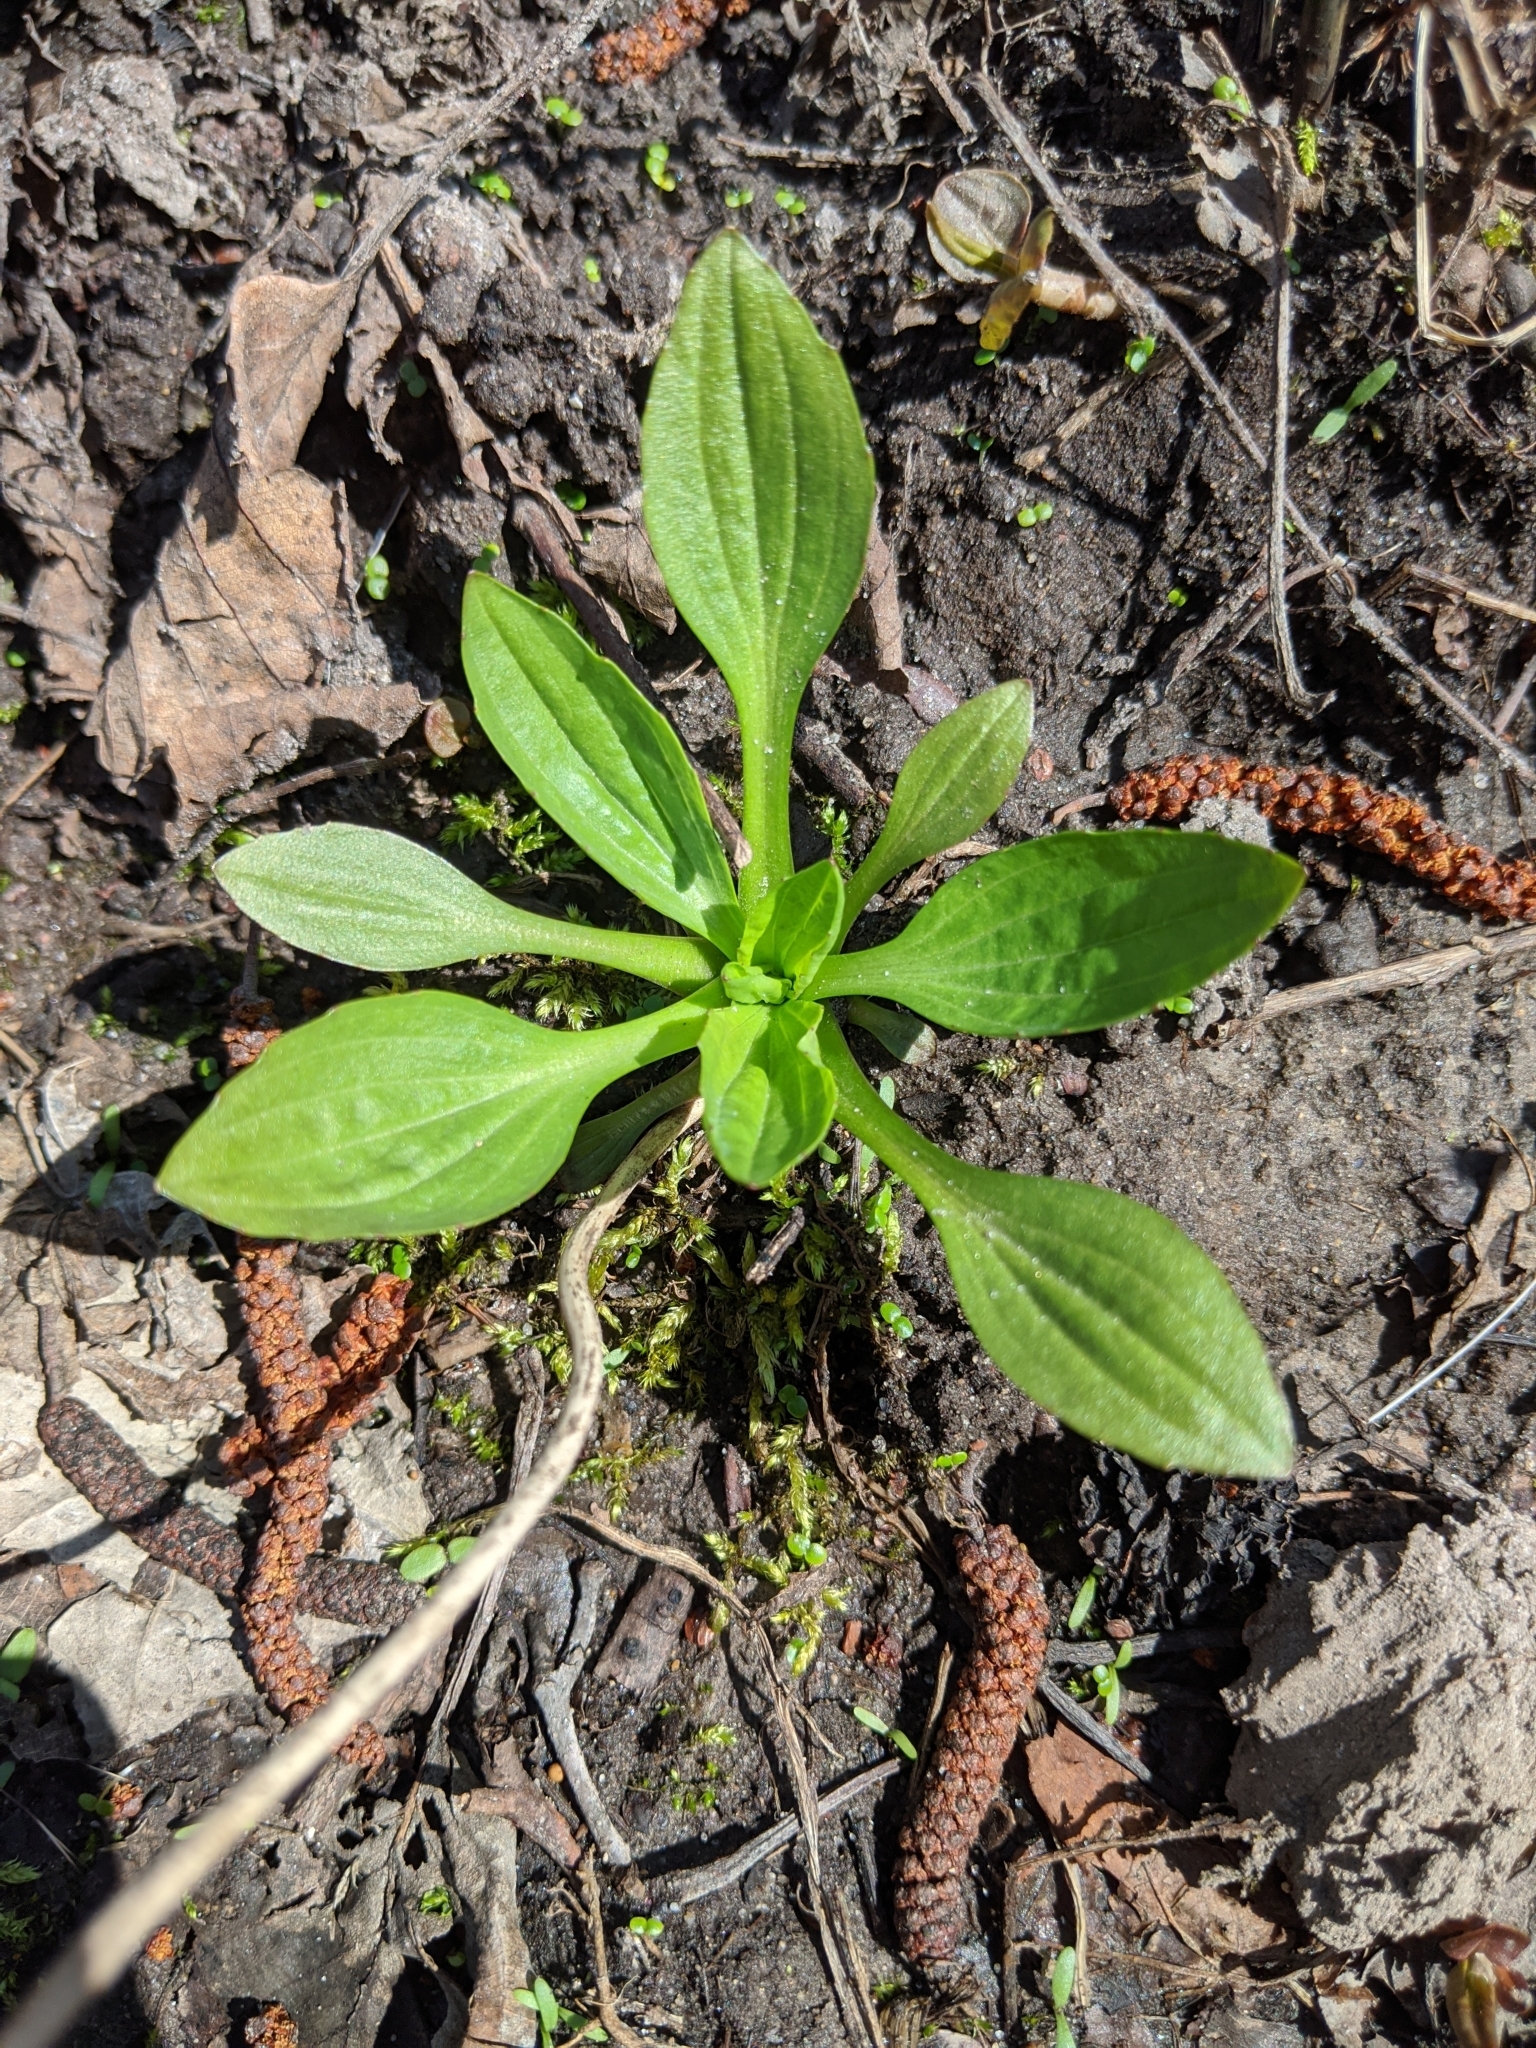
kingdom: Plantae
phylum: Tracheophyta
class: Magnoliopsida
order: Lamiales
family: Plantaginaceae
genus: Plantago
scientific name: Plantago major
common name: Common plantain
